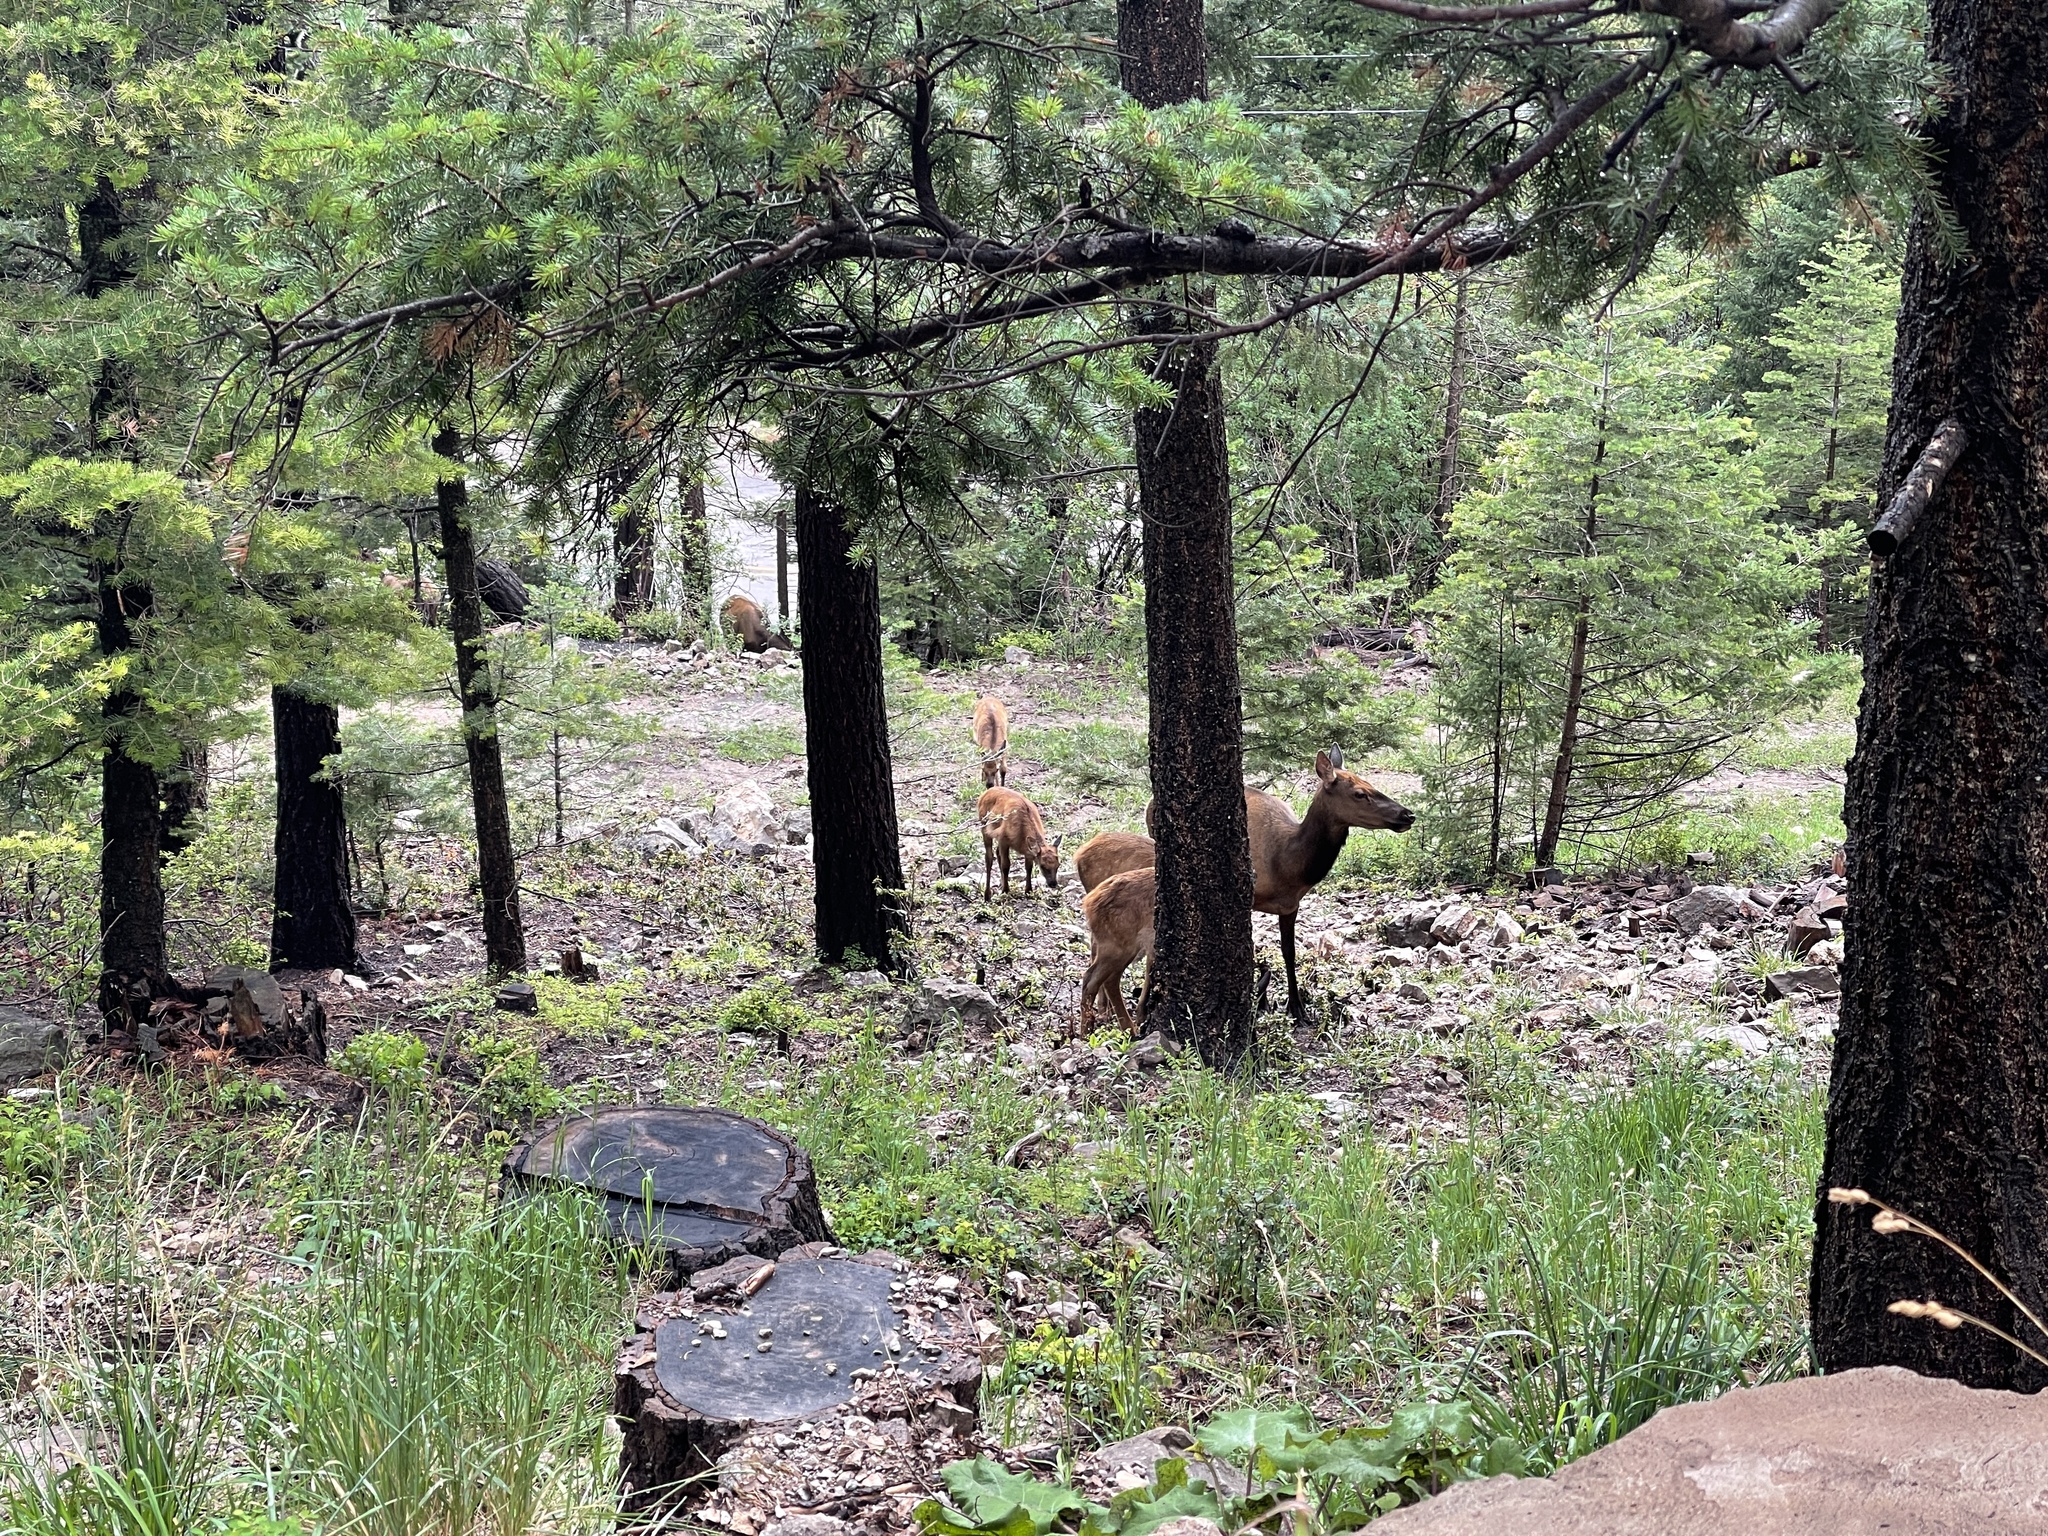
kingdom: Animalia
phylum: Chordata
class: Mammalia
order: Artiodactyla
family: Cervidae
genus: Cervus
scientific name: Cervus elaphus
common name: Red deer
